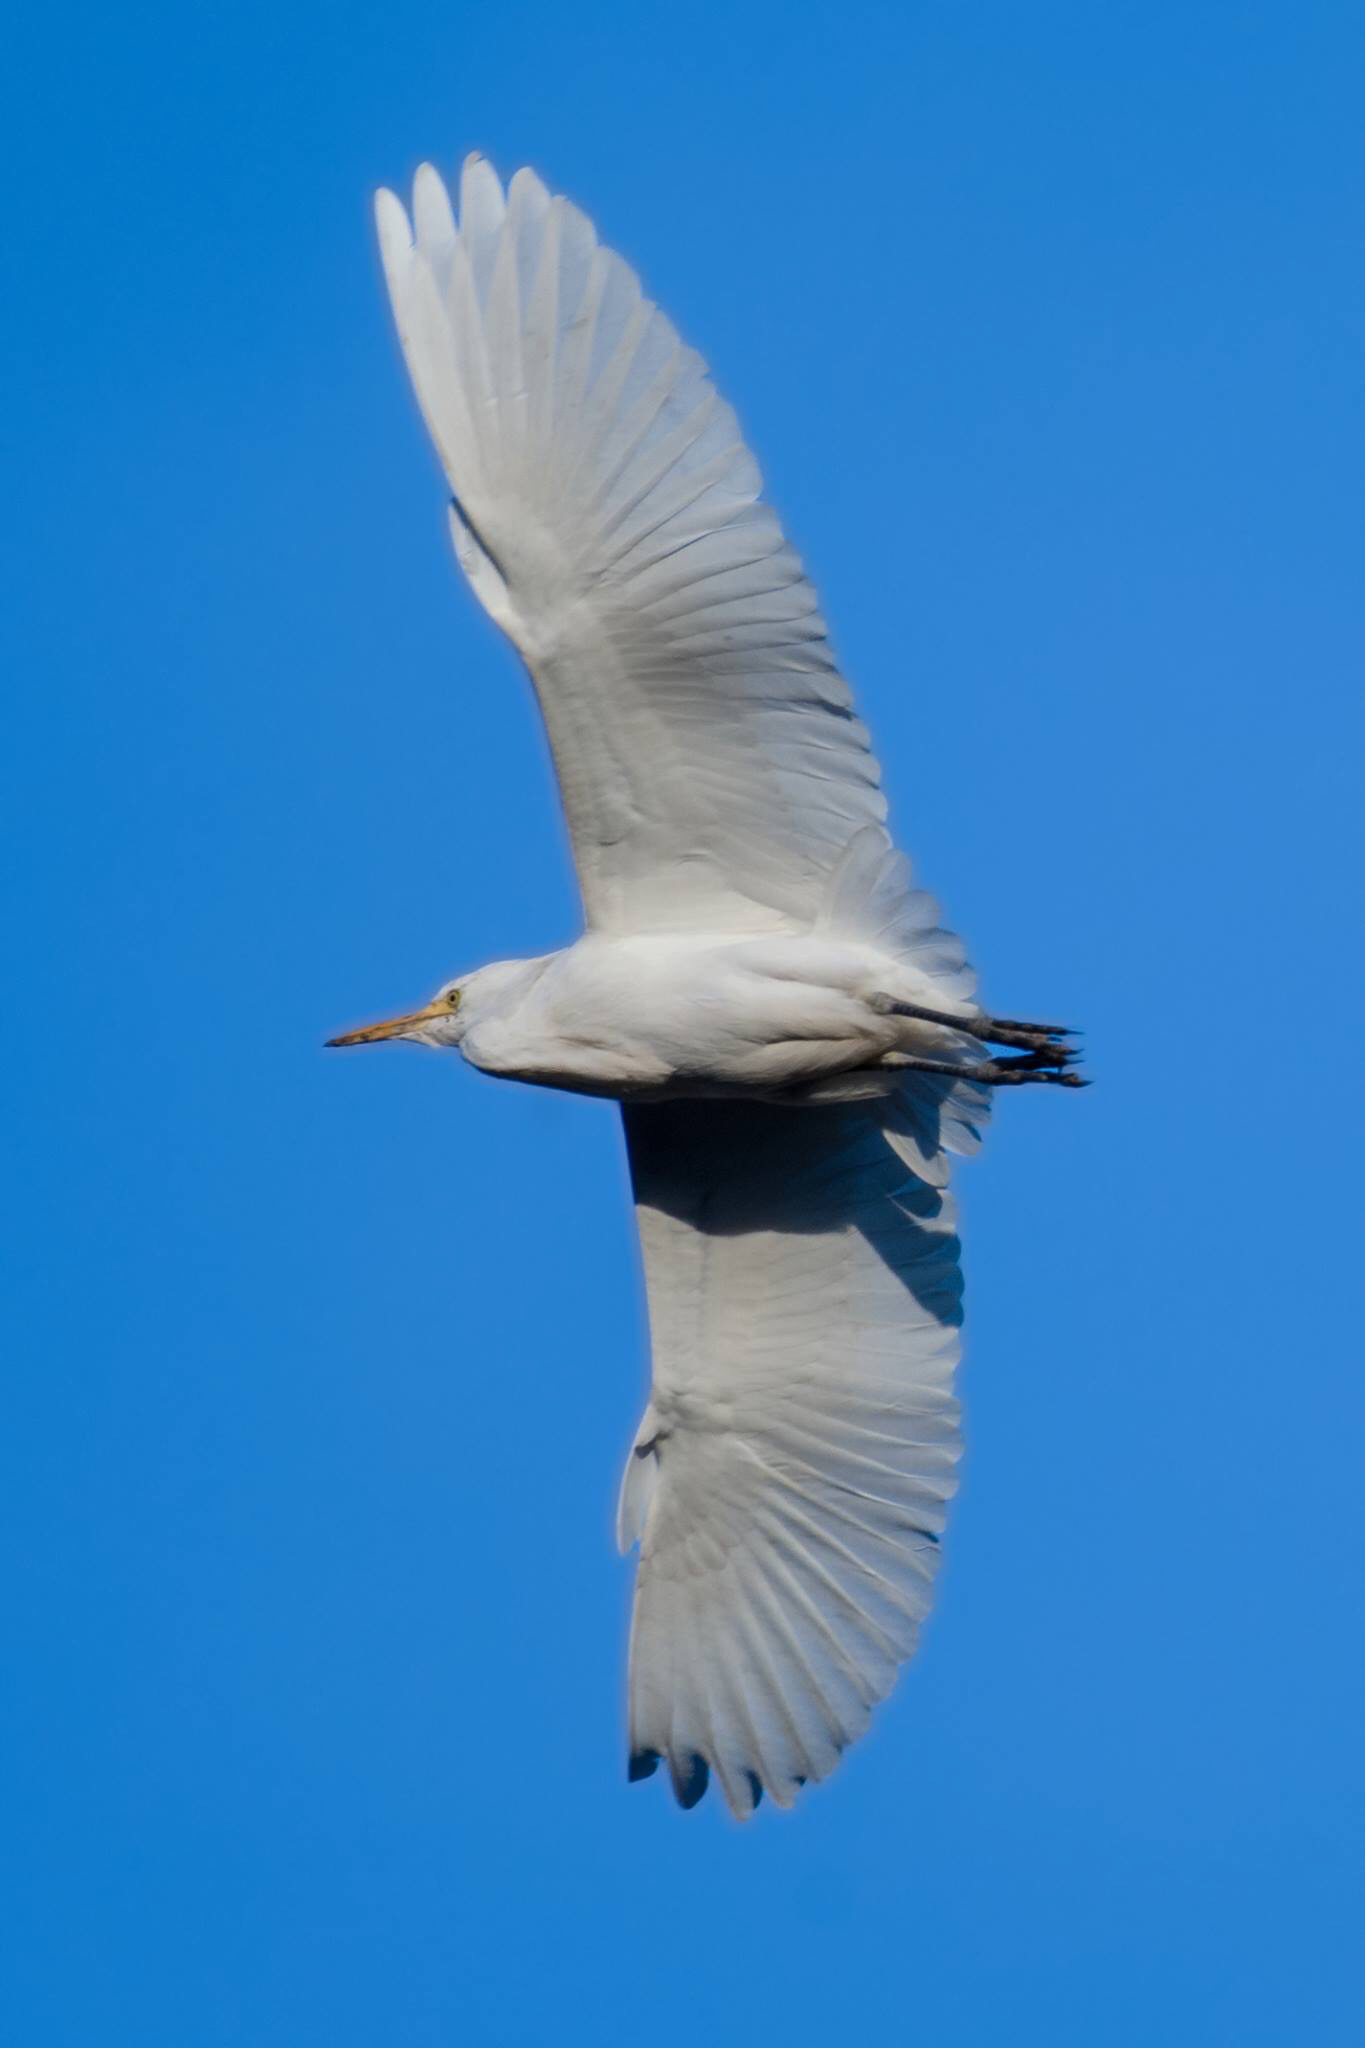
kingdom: Animalia
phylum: Chordata
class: Aves
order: Pelecaniformes
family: Ardeidae
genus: Bubulcus
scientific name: Bubulcus ibis
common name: Cattle egret
